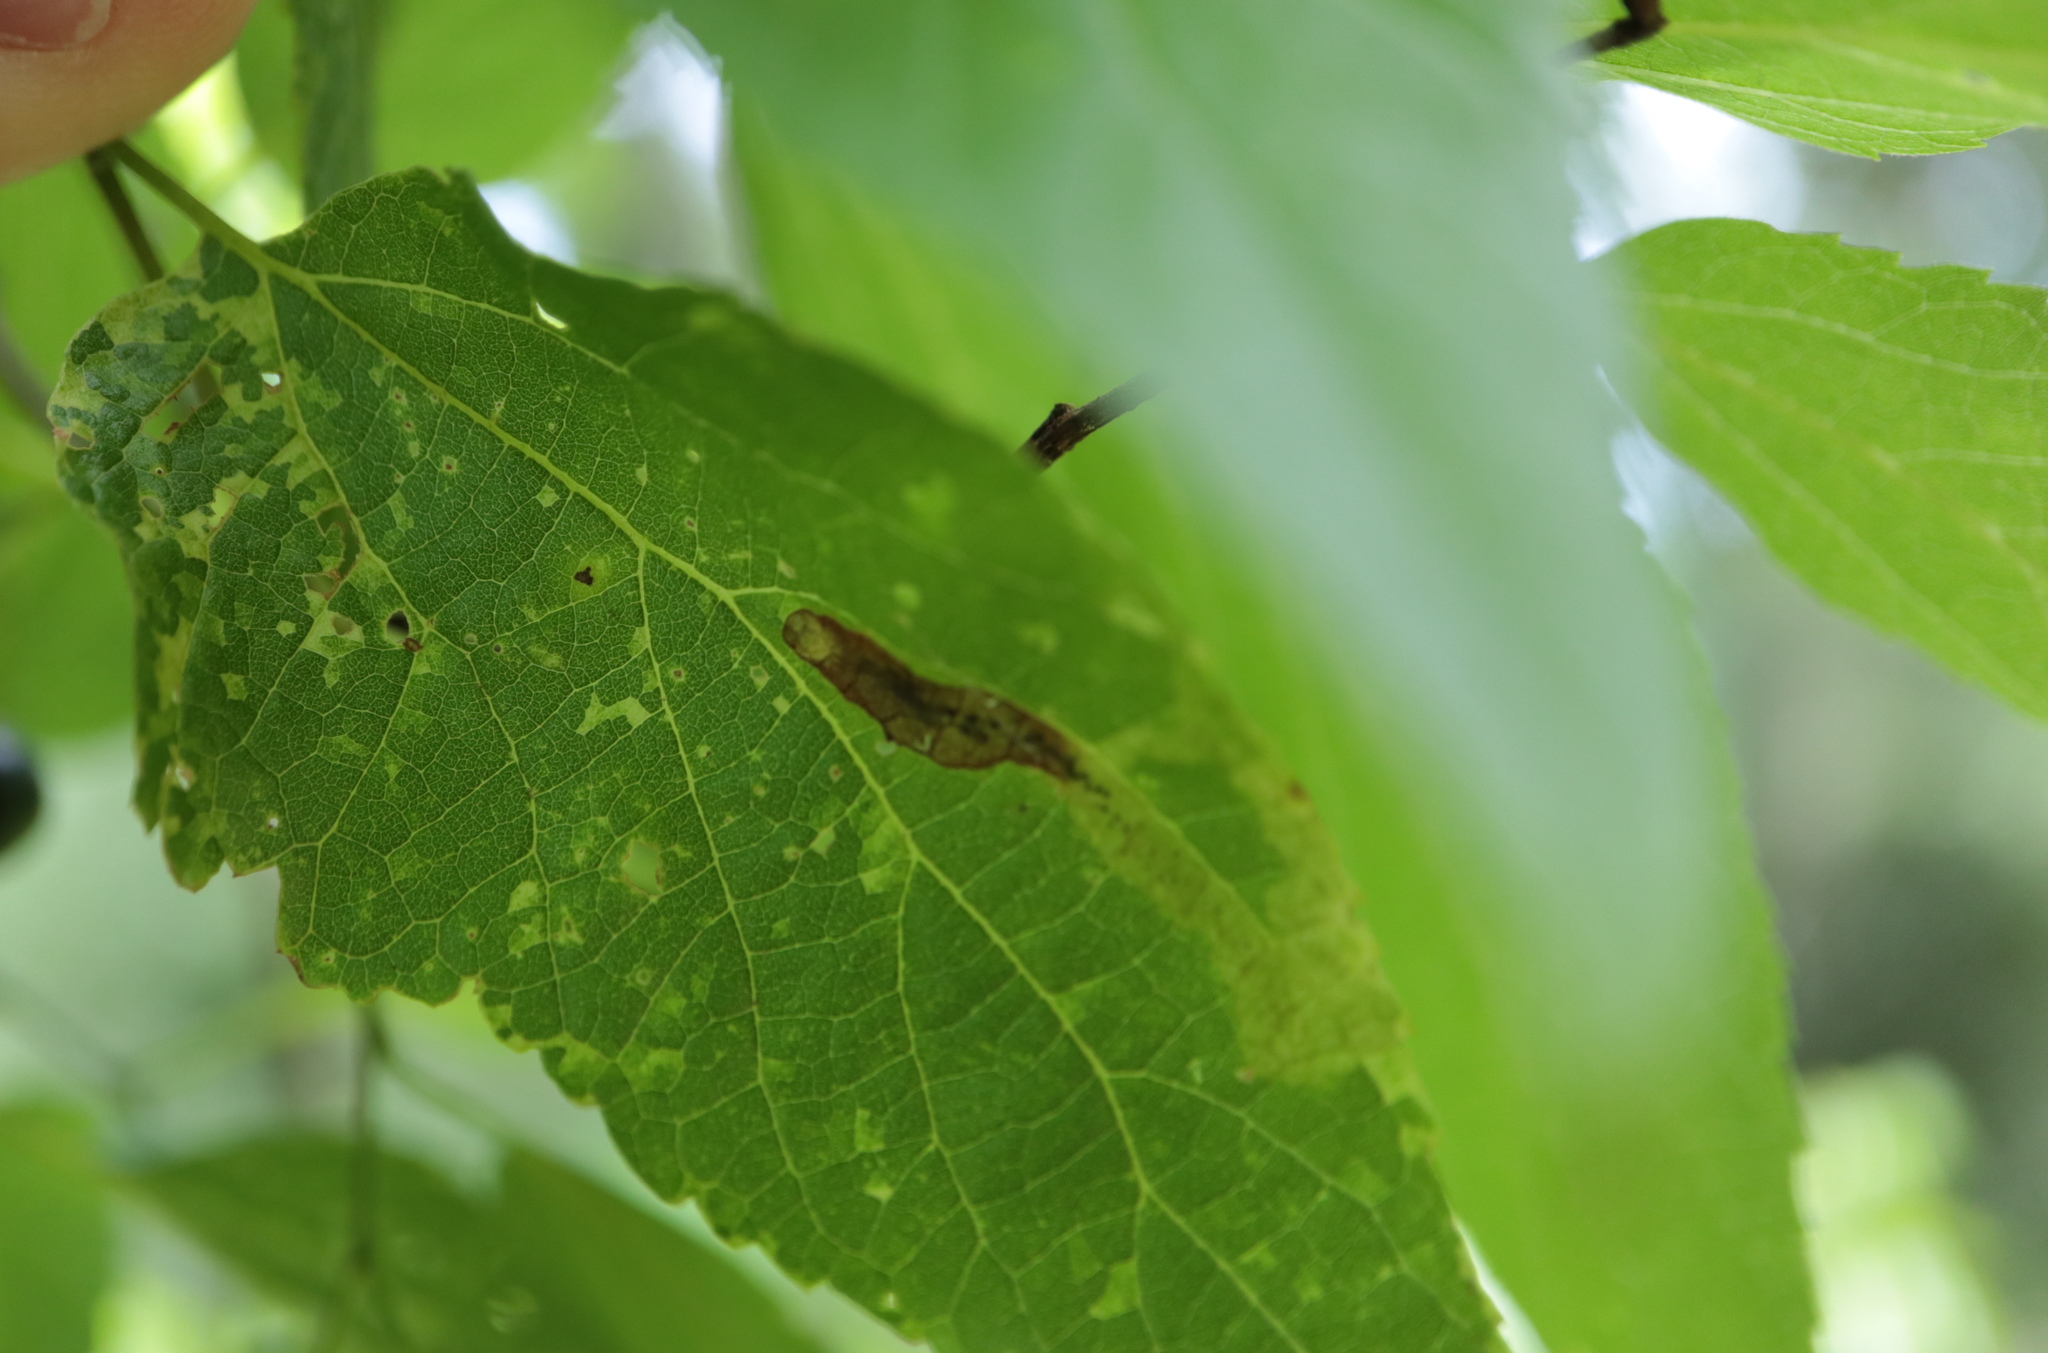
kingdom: Viruses
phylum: Kitrinoviricota
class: Alsuviricetes
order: Martellivirales
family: Closteroviridae
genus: Ampelovirus
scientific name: Ampelovirus
